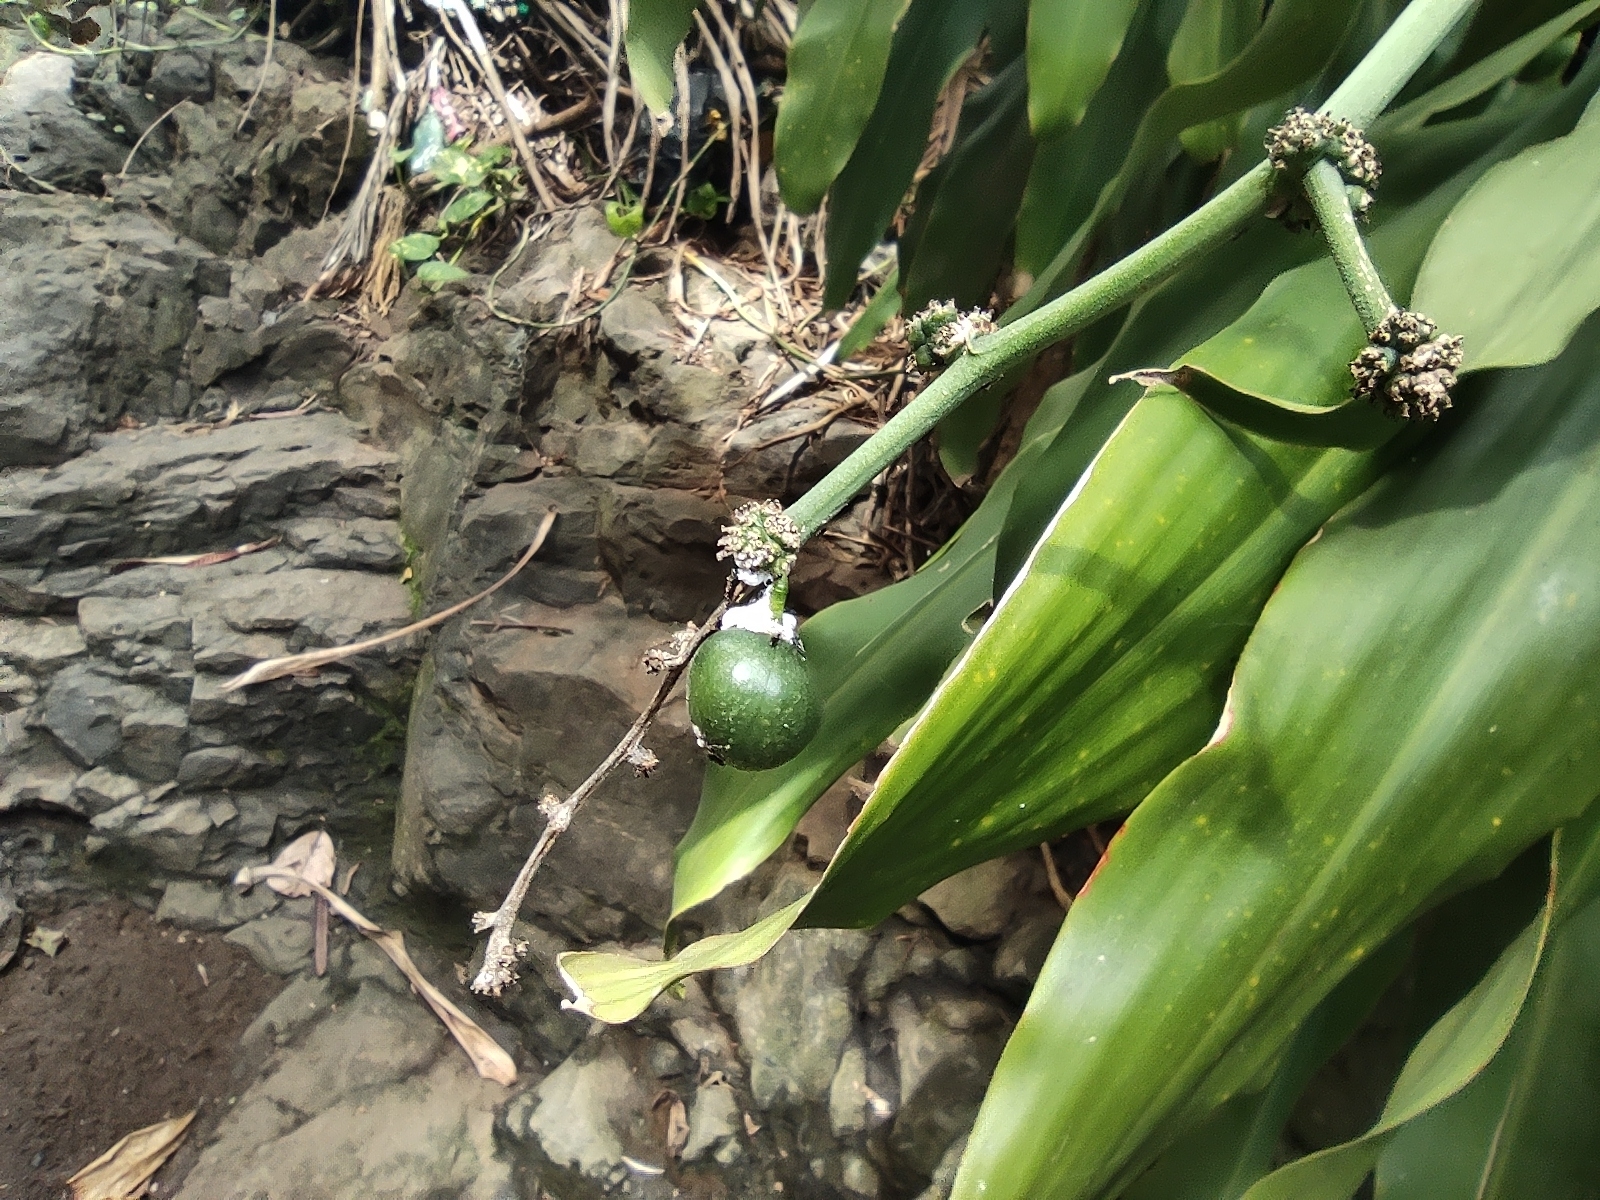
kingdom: Plantae
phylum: Tracheophyta
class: Liliopsida
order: Asparagales
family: Asparagaceae
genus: Dracaena
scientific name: Dracaena fragrans
